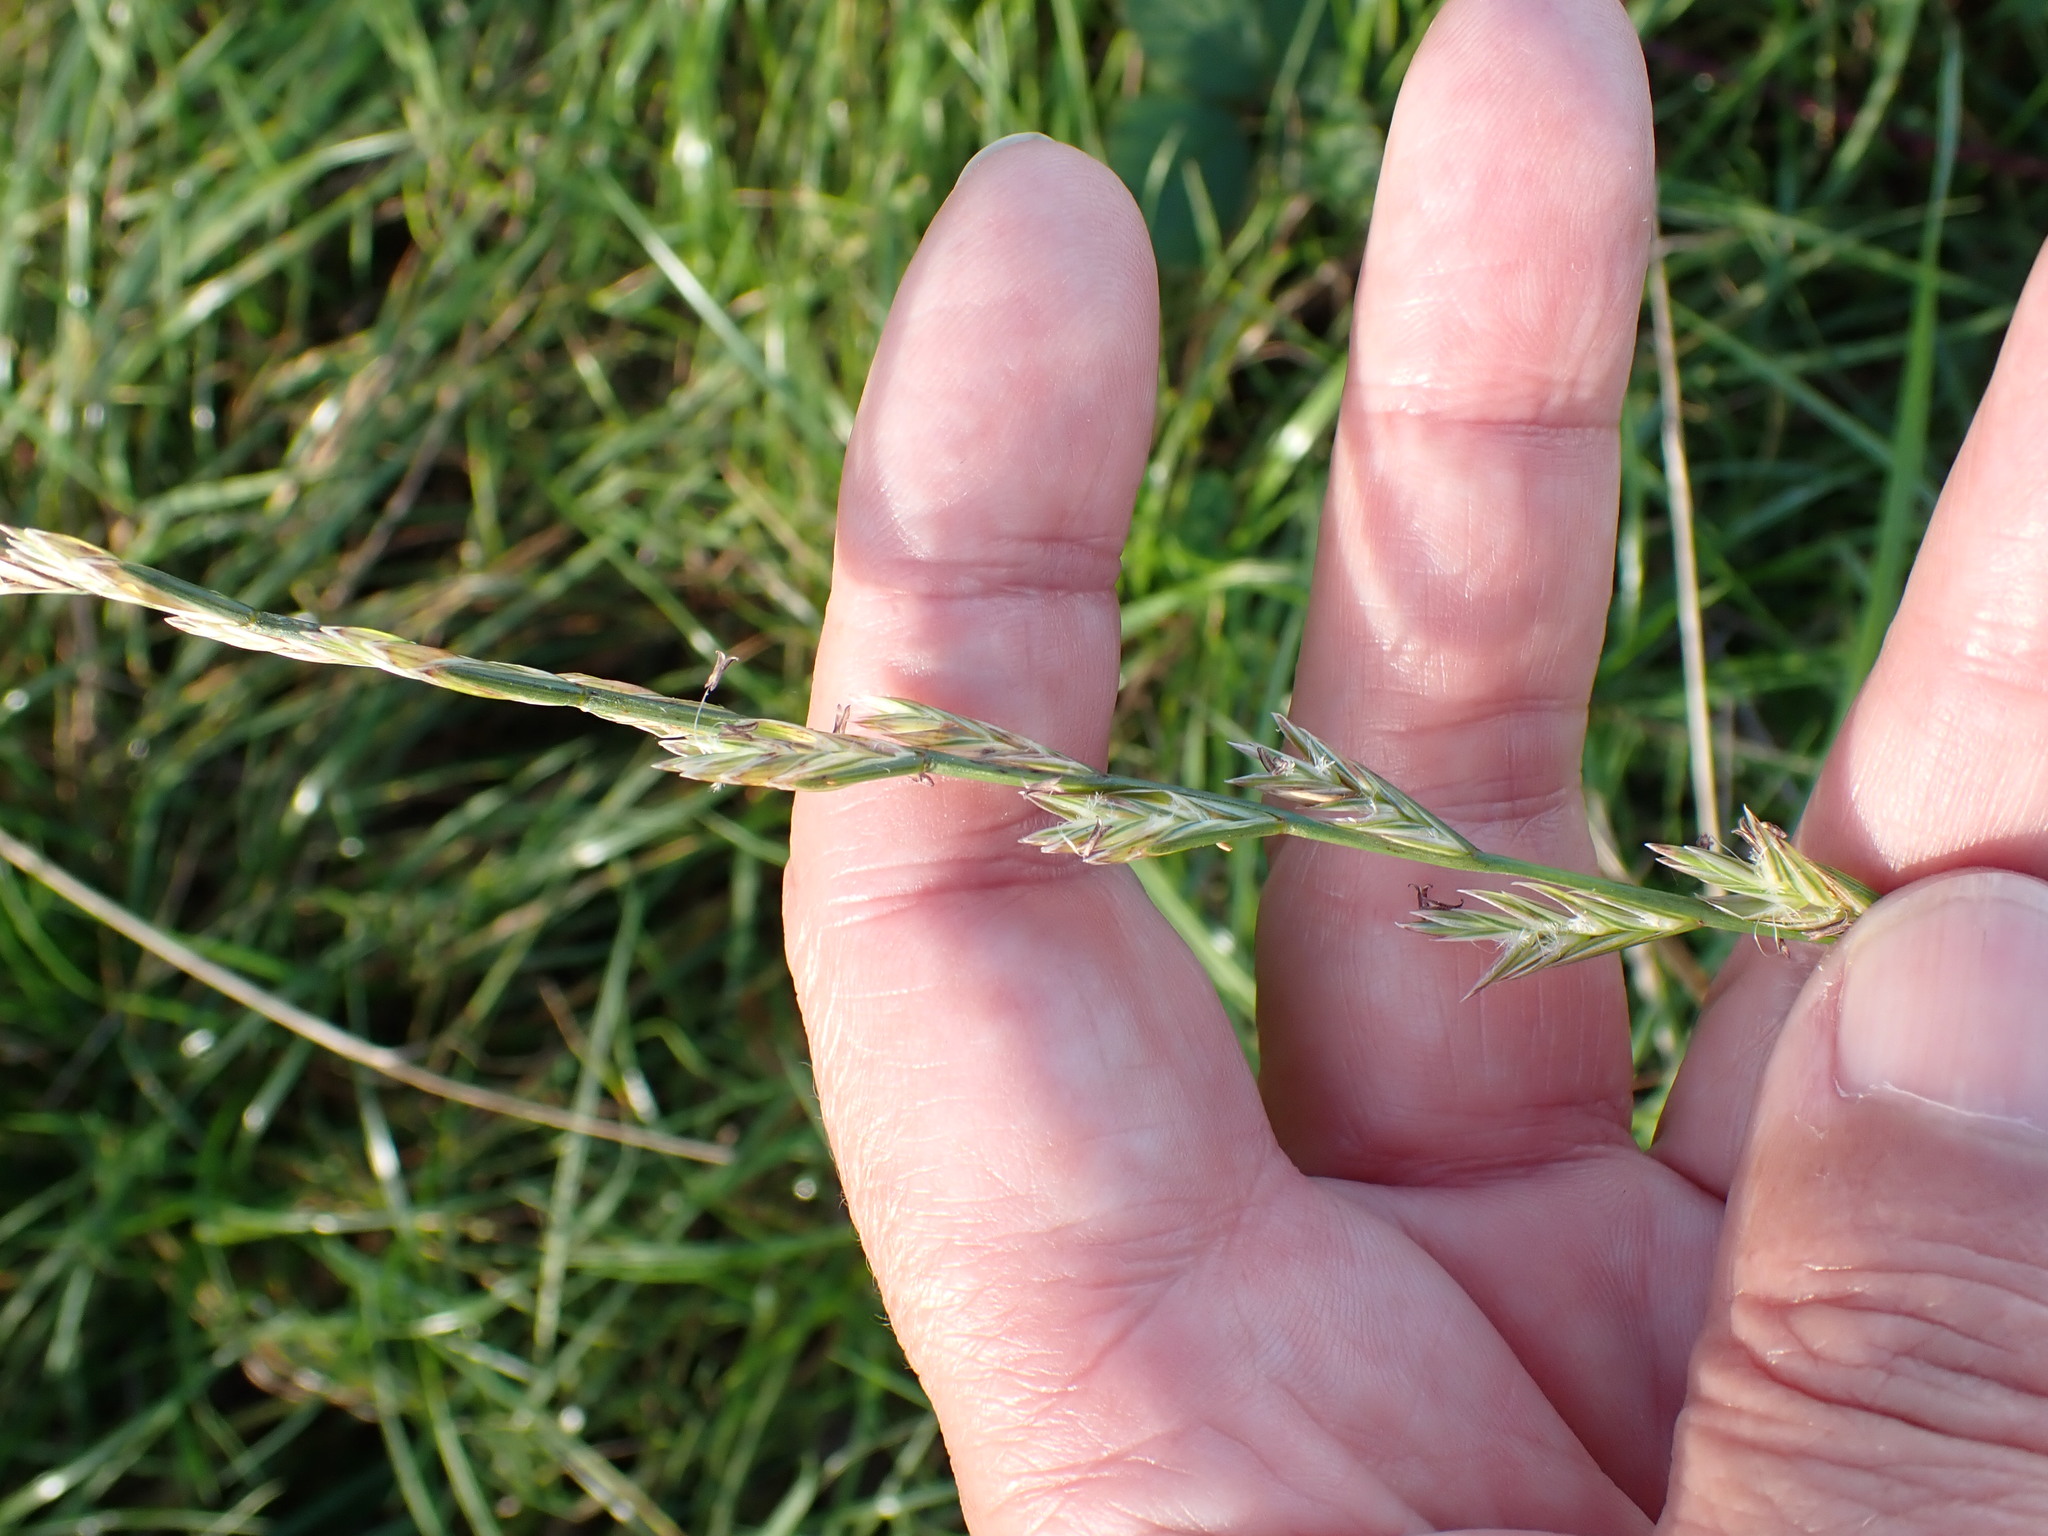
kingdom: Plantae
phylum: Tracheophyta
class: Liliopsida
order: Poales
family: Poaceae
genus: Lolium
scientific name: Lolium perenne
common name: Perennial ryegrass
